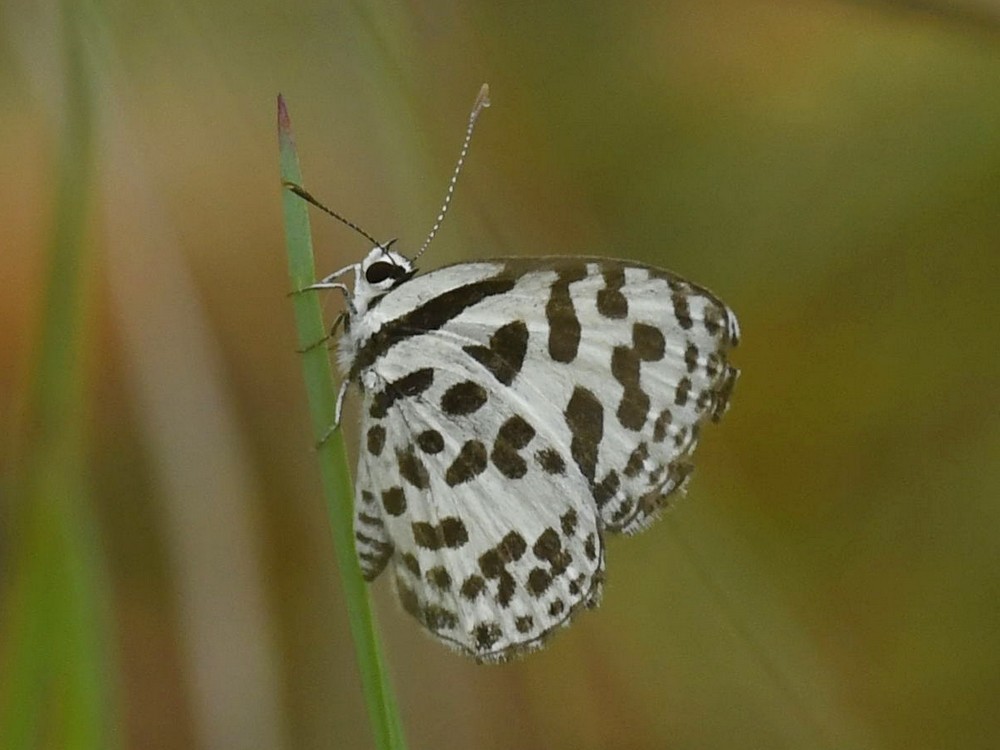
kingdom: Animalia
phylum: Arthropoda
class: Insecta
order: Lepidoptera
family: Lycaenidae
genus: Castalius
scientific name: Castalius rosimon
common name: Common pierrot
